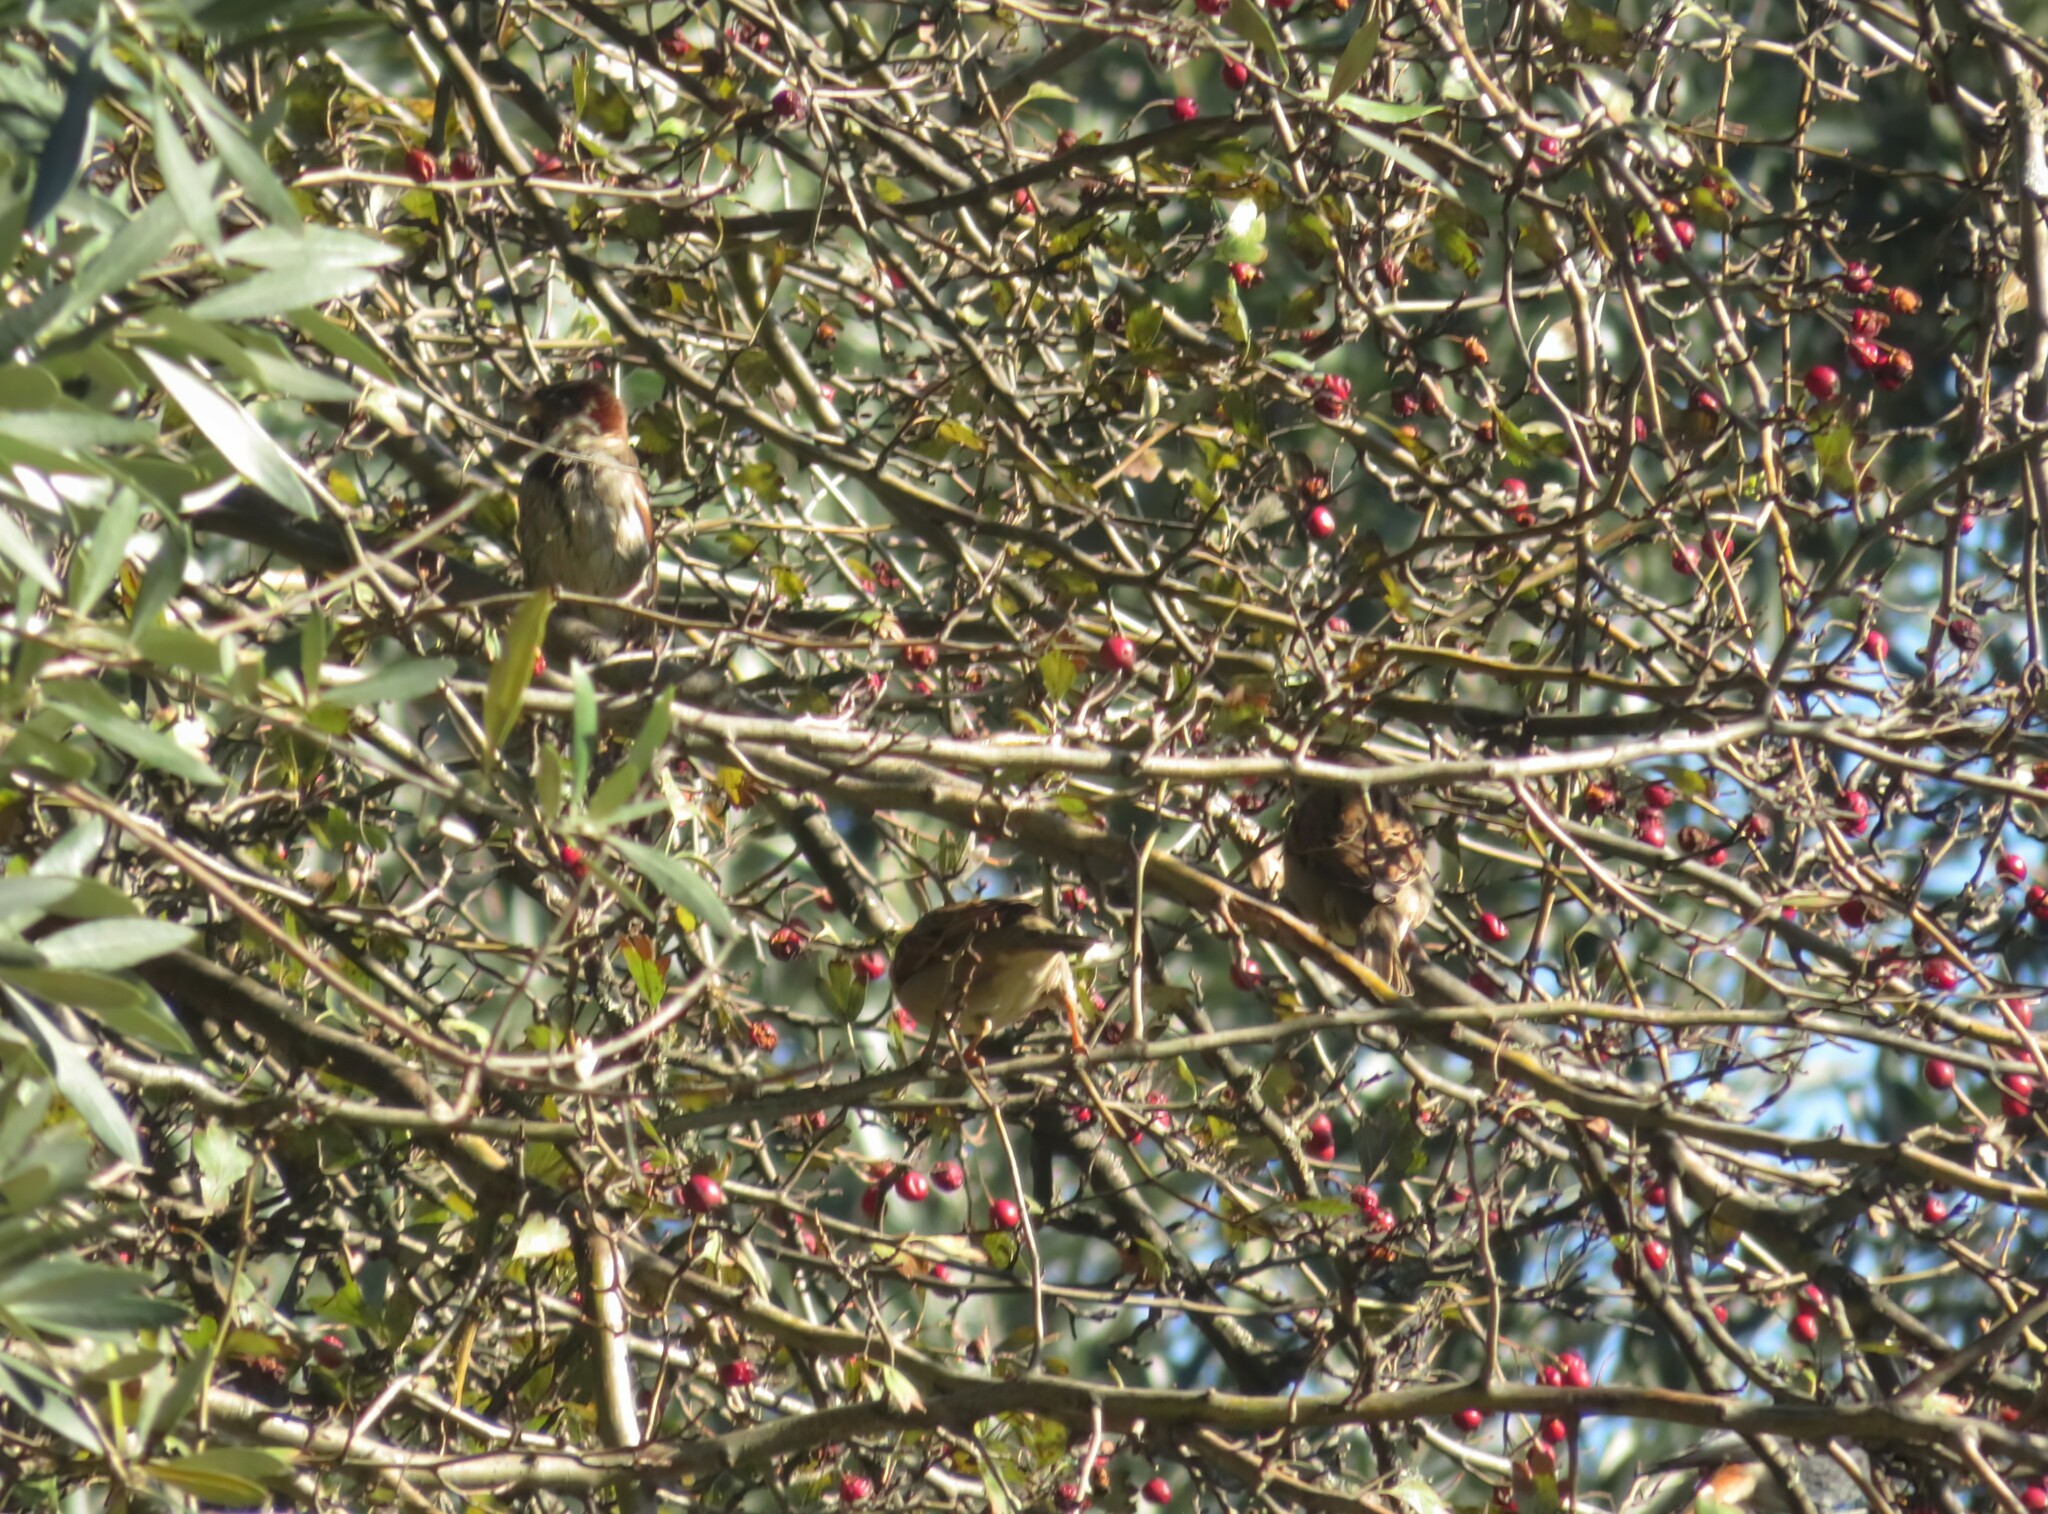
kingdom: Animalia
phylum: Chordata
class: Aves
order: Passeriformes
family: Passeridae
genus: Passer
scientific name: Passer domesticus
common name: House sparrow
